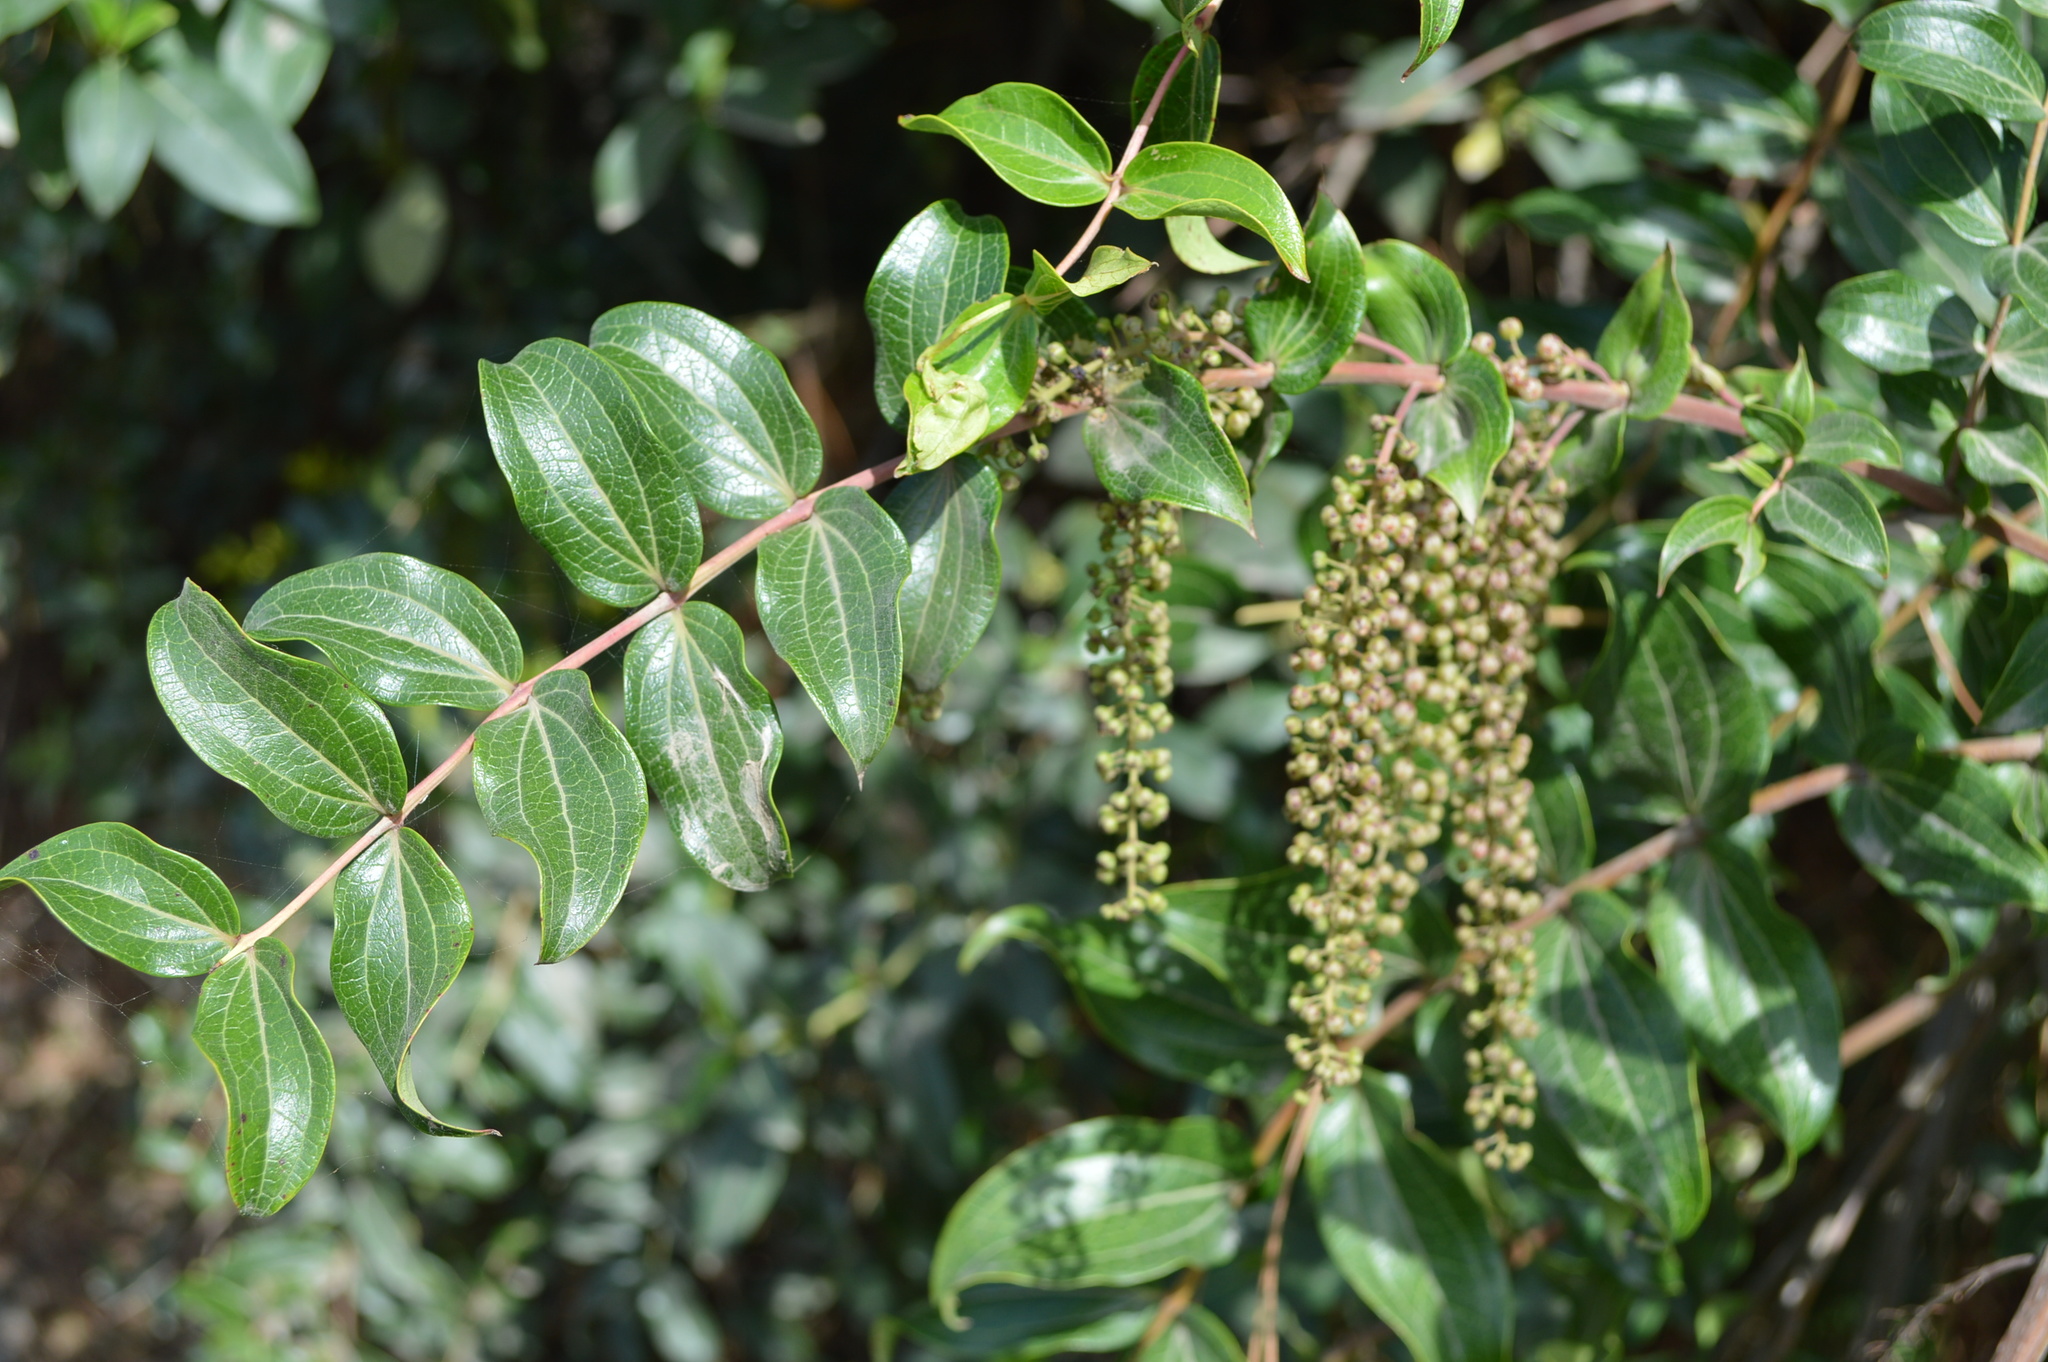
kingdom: Plantae
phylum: Tracheophyta
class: Magnoliopsida
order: Cucurbitales
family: Coriariaceae
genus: Coriaria
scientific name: Coriaria arborea
